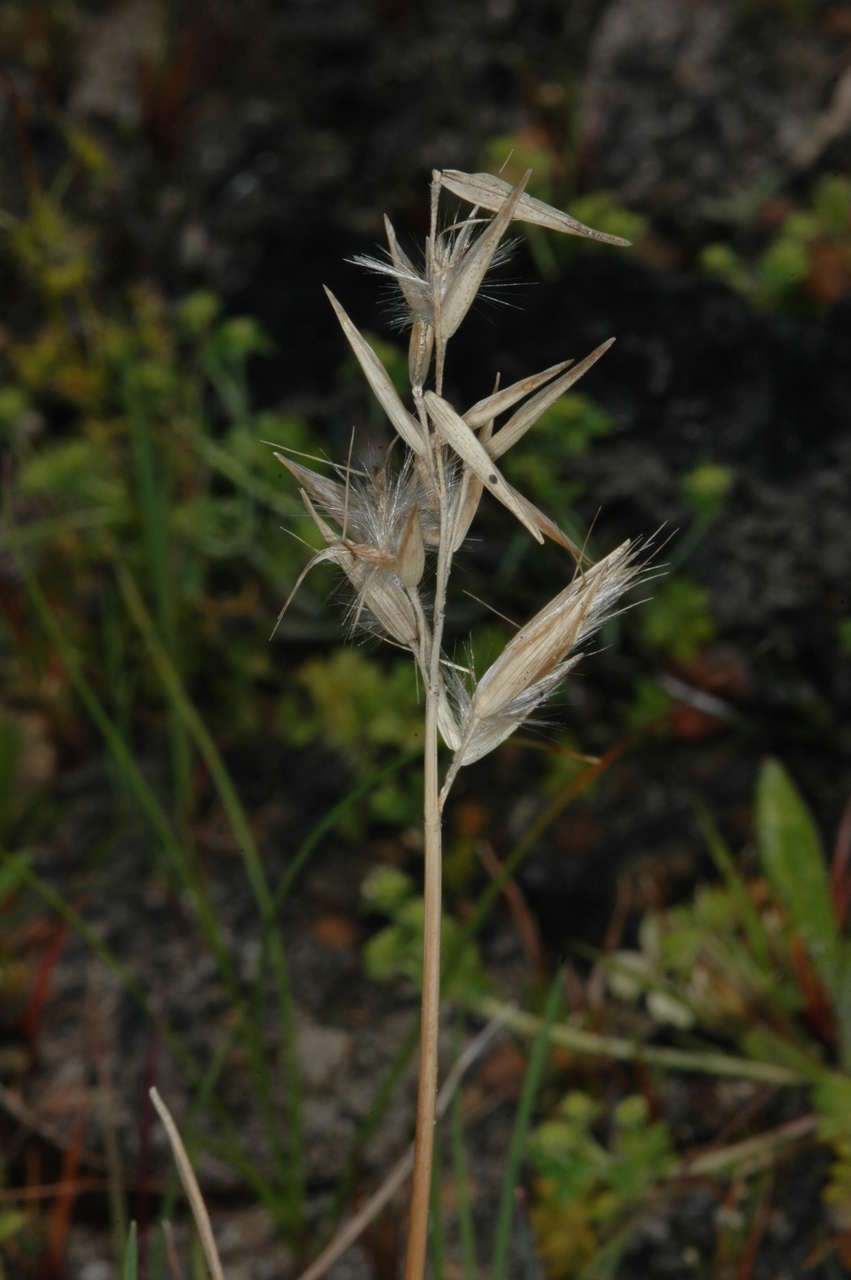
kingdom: Plantae
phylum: Tracheophyta
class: Liliopsida
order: Poales
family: Poaceae
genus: Rytidosperma
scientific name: Rytidosperma geniculatum
